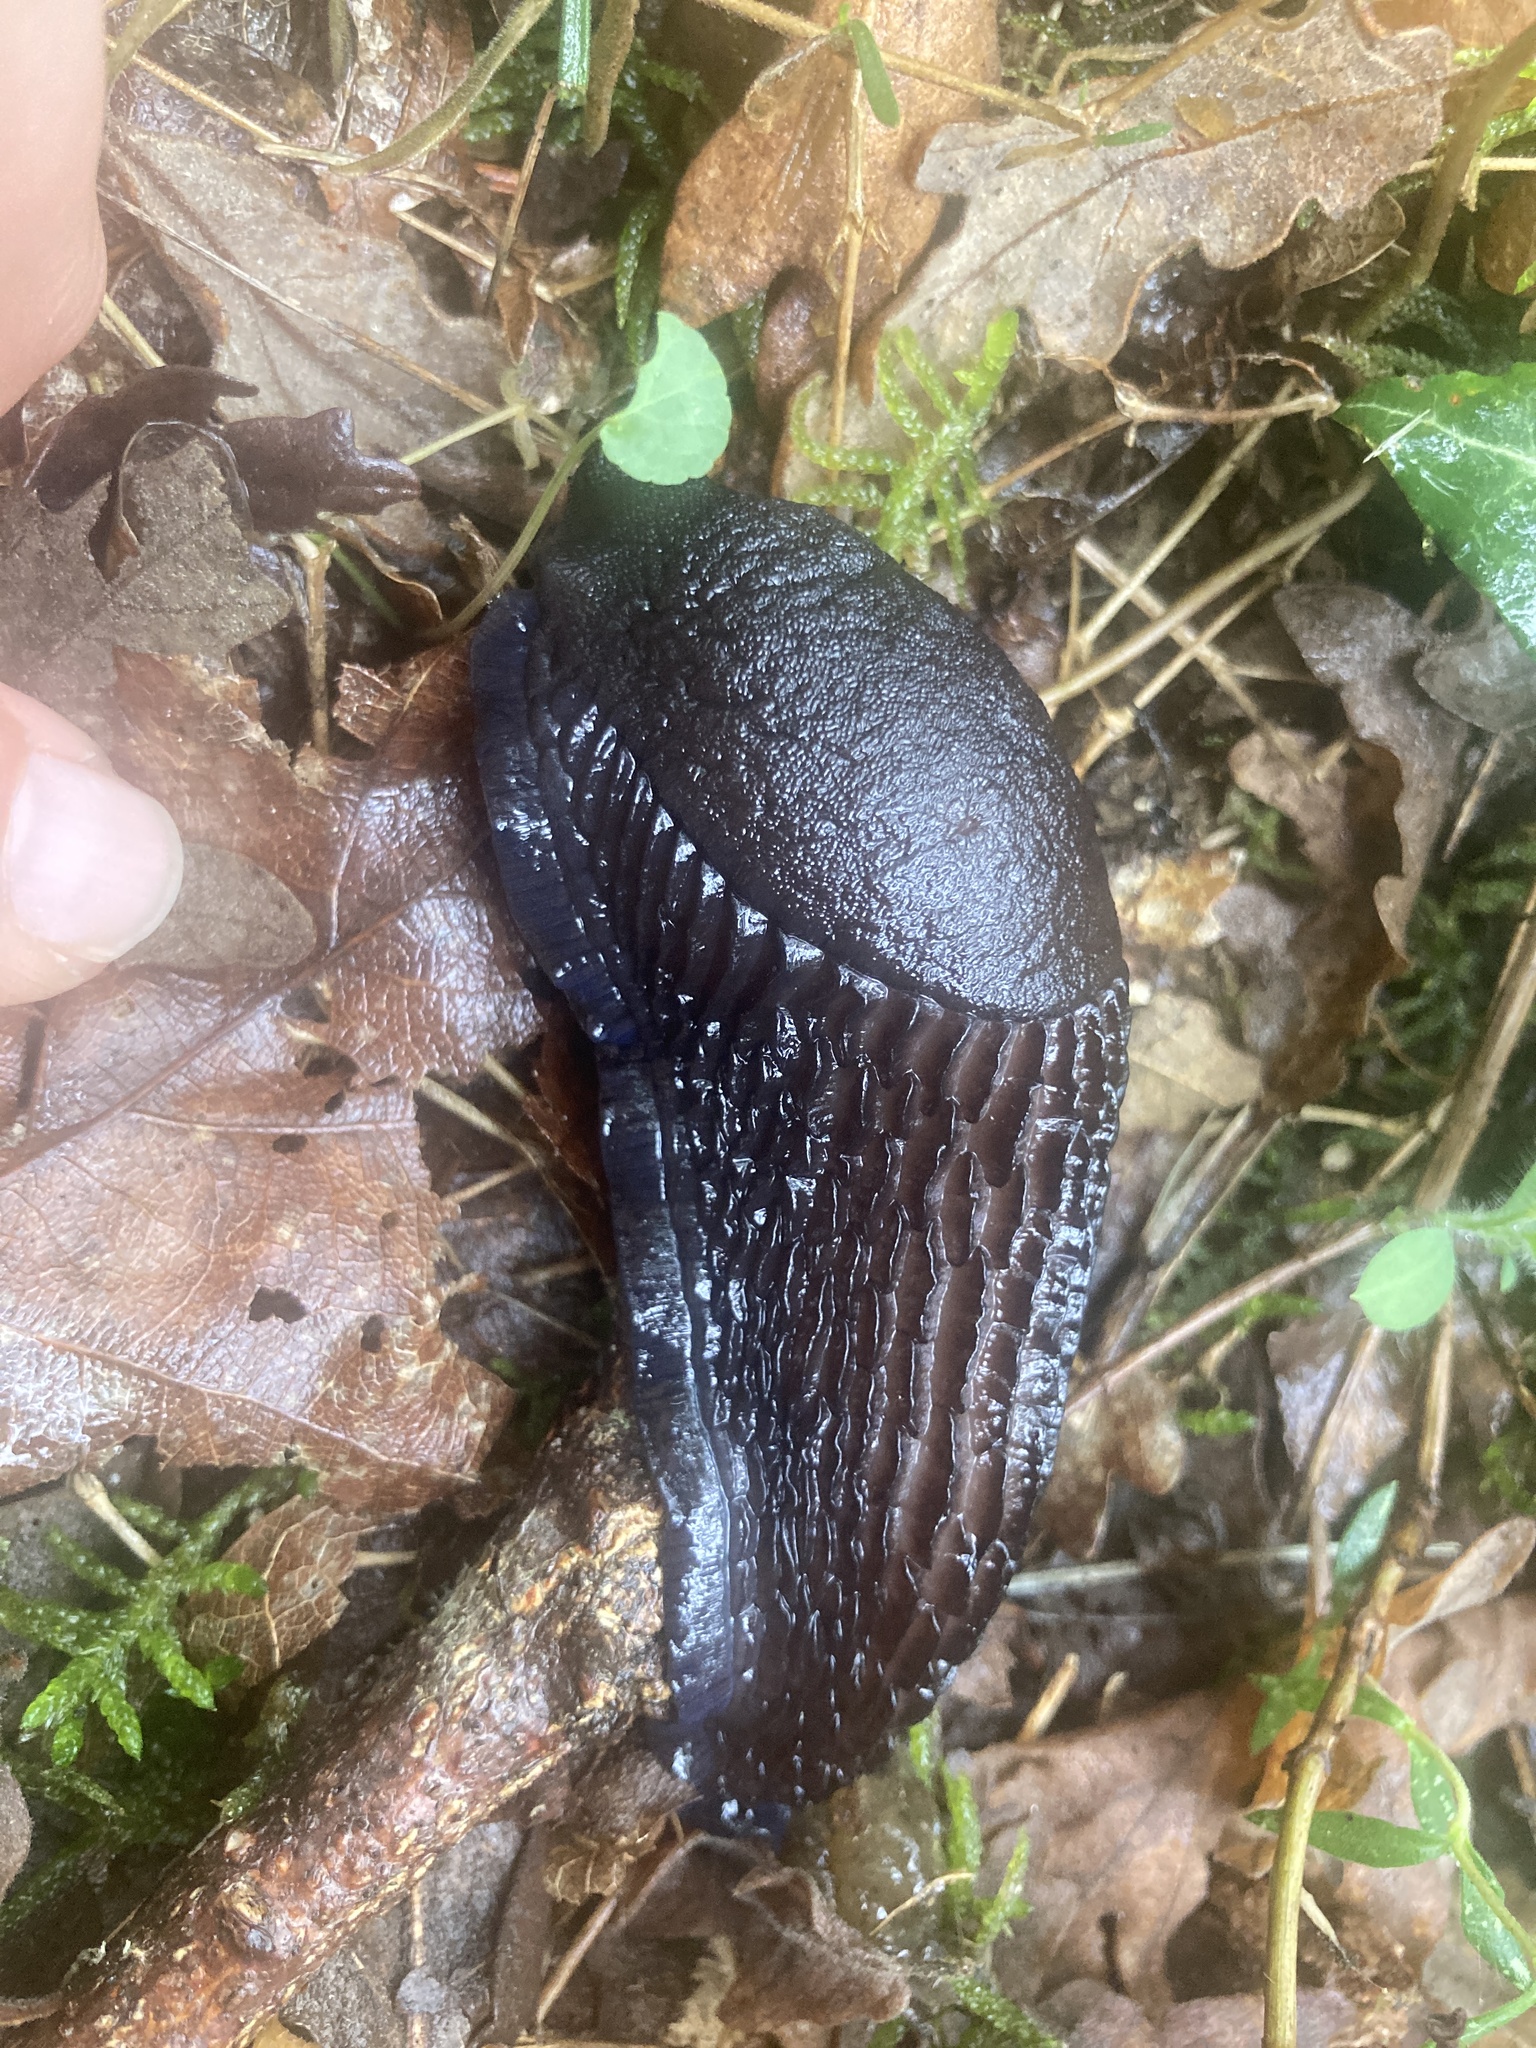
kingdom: Animalia
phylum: Mollusca
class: Gastropoda
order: Stylommatophora
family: Arionidae
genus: Arion
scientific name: Arion ater
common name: Black arion
